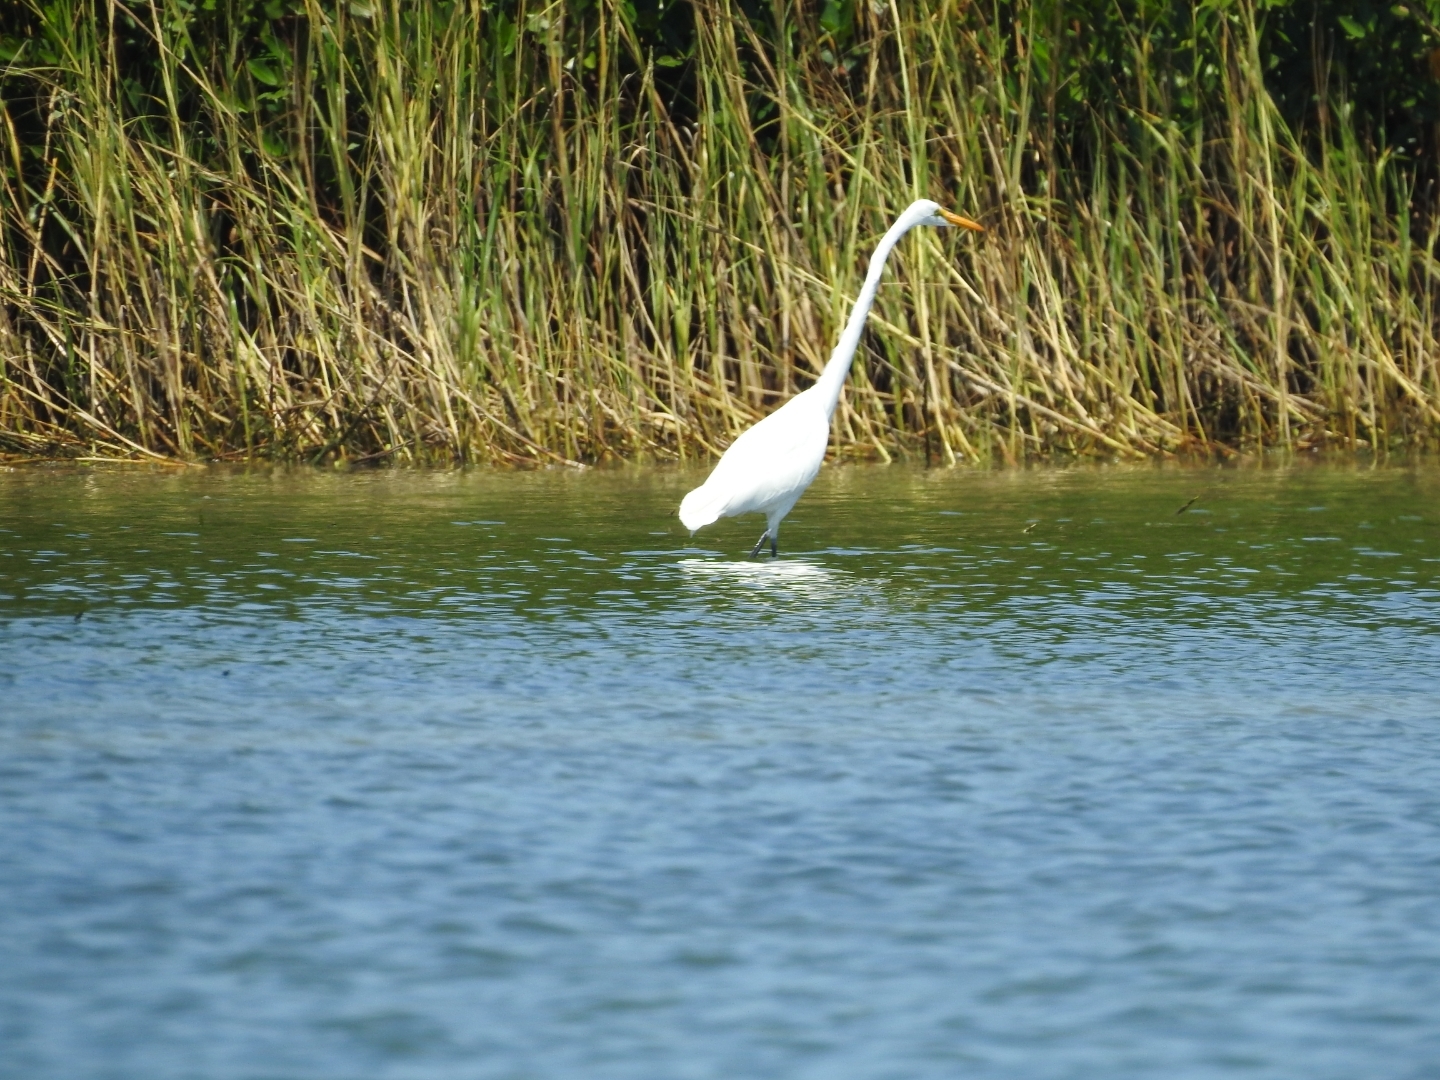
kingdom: Animalia
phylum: Chordata
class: Aves
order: Pelecaniformes
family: Ardeidae
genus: Ardea
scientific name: Ardea alba
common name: Great egret
